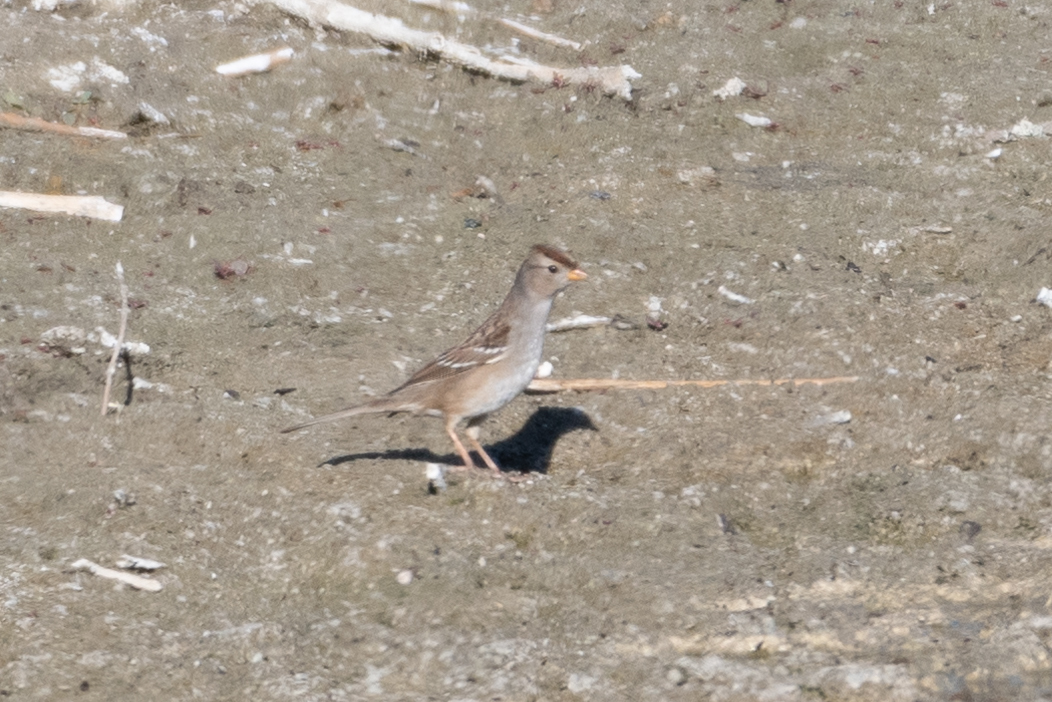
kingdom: Animalia
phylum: Chordata
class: Aves
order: Passeriformes
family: Passerellidae
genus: Zonotrichia
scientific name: Zonotrichia leucophrys
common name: White-crowned sparrow
